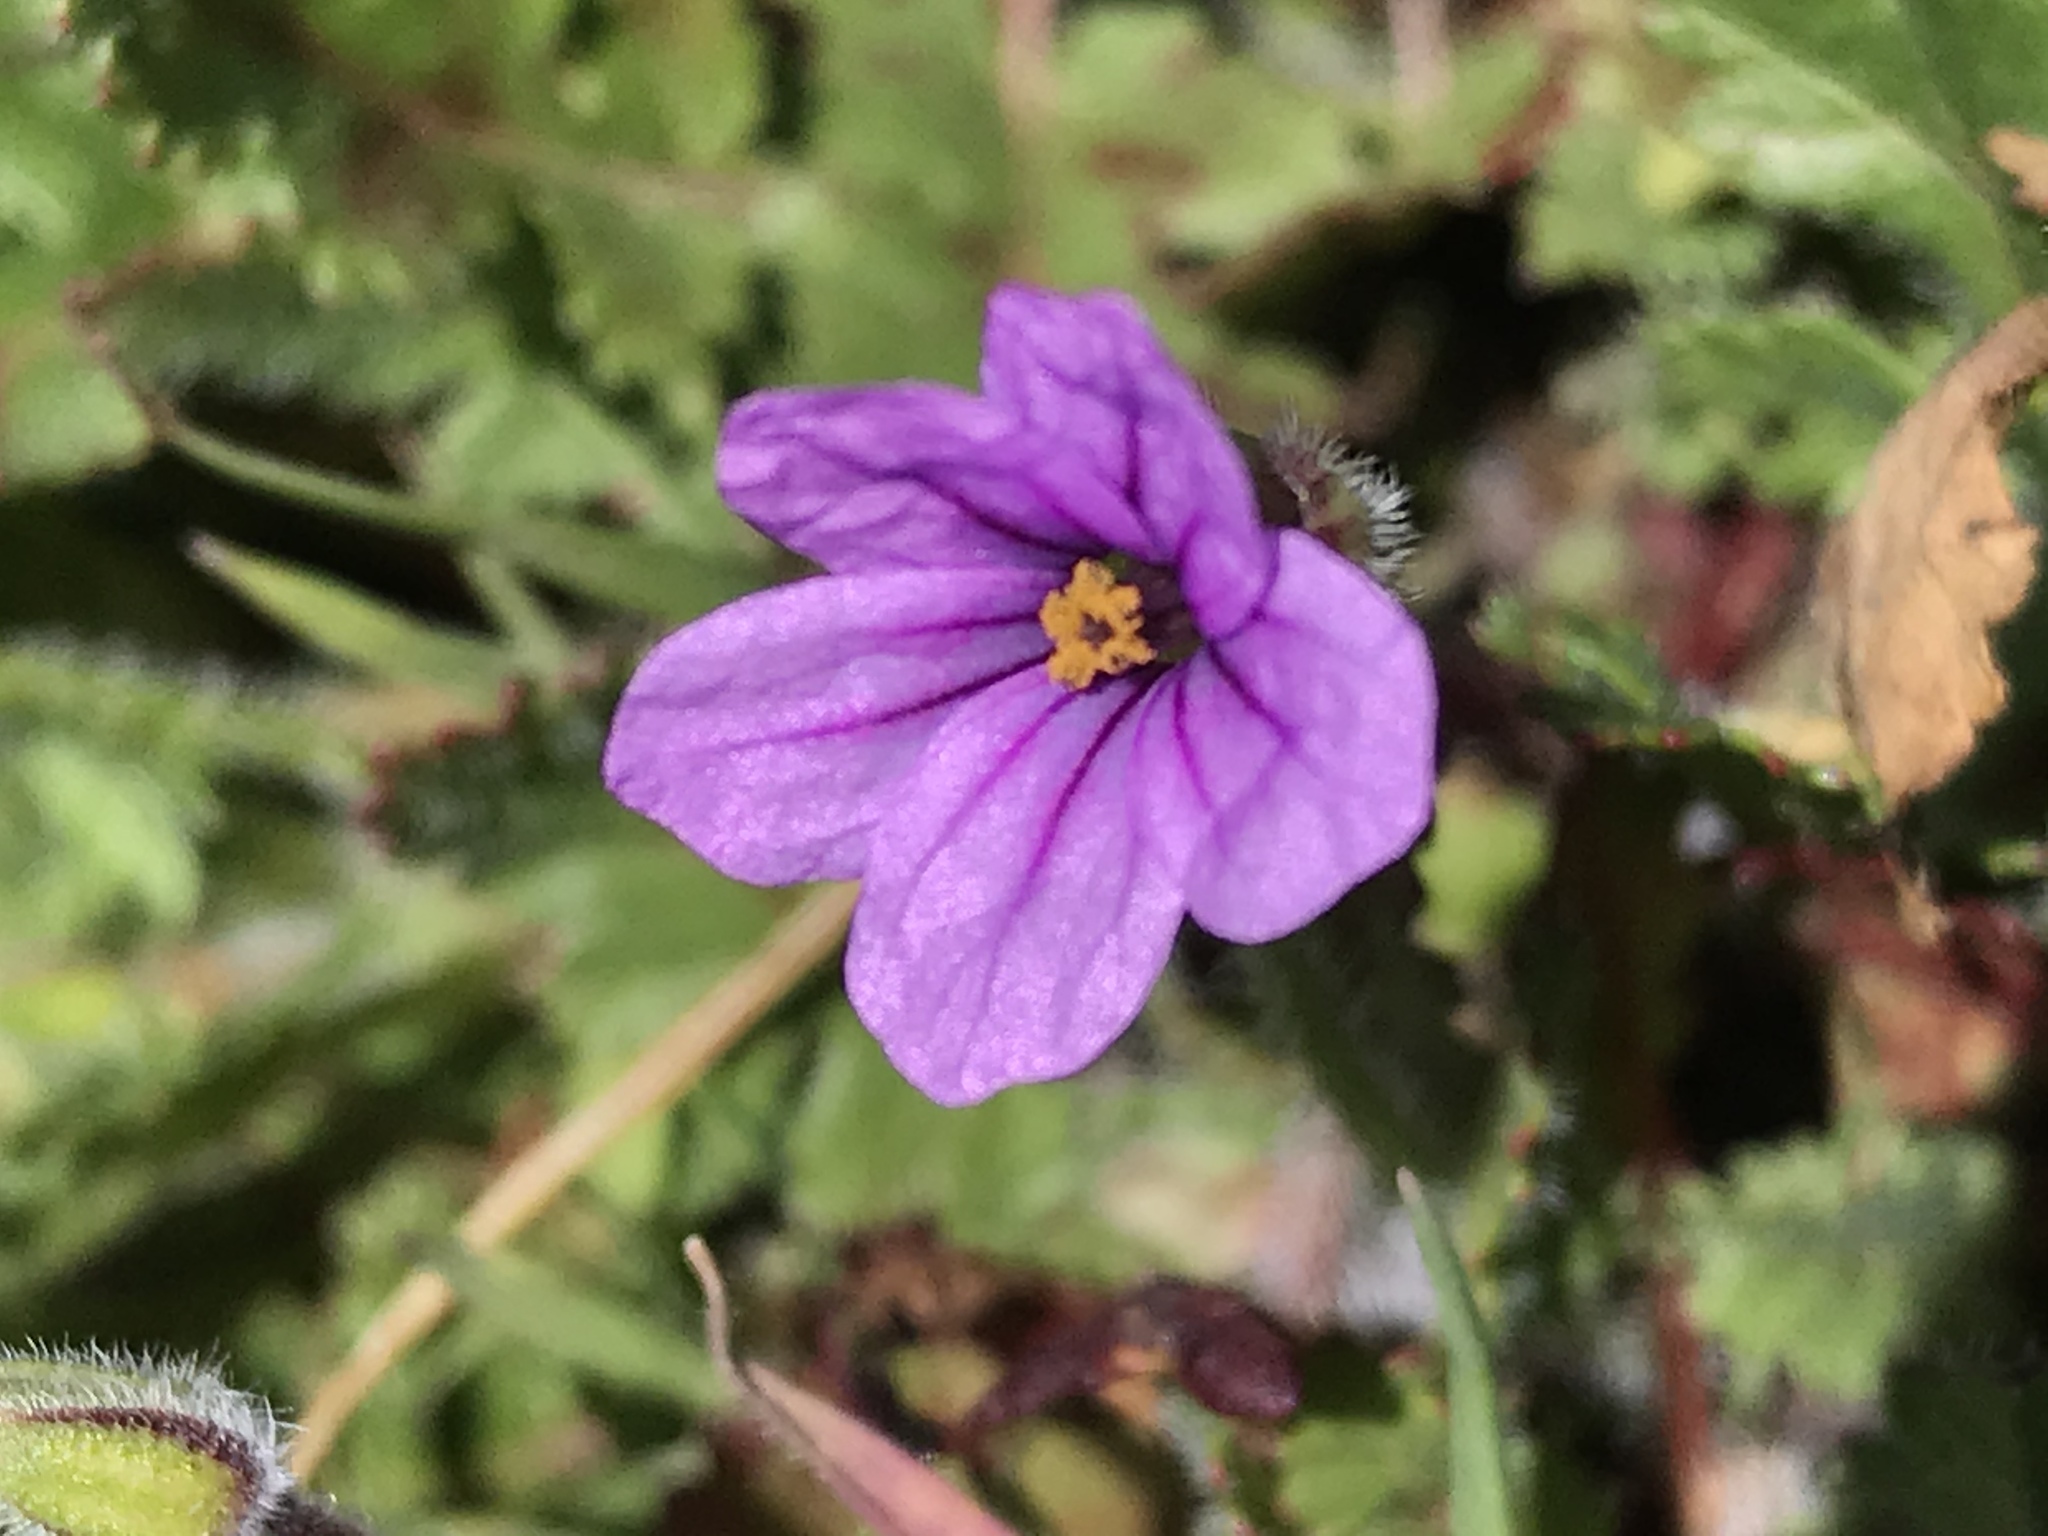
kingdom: Plantae
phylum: Tracheophyta
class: Magnoliopsida
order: Geraniales
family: Geraniaceae
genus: Erodium
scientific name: Erodium botrys
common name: Mediterranean stork's-bill
